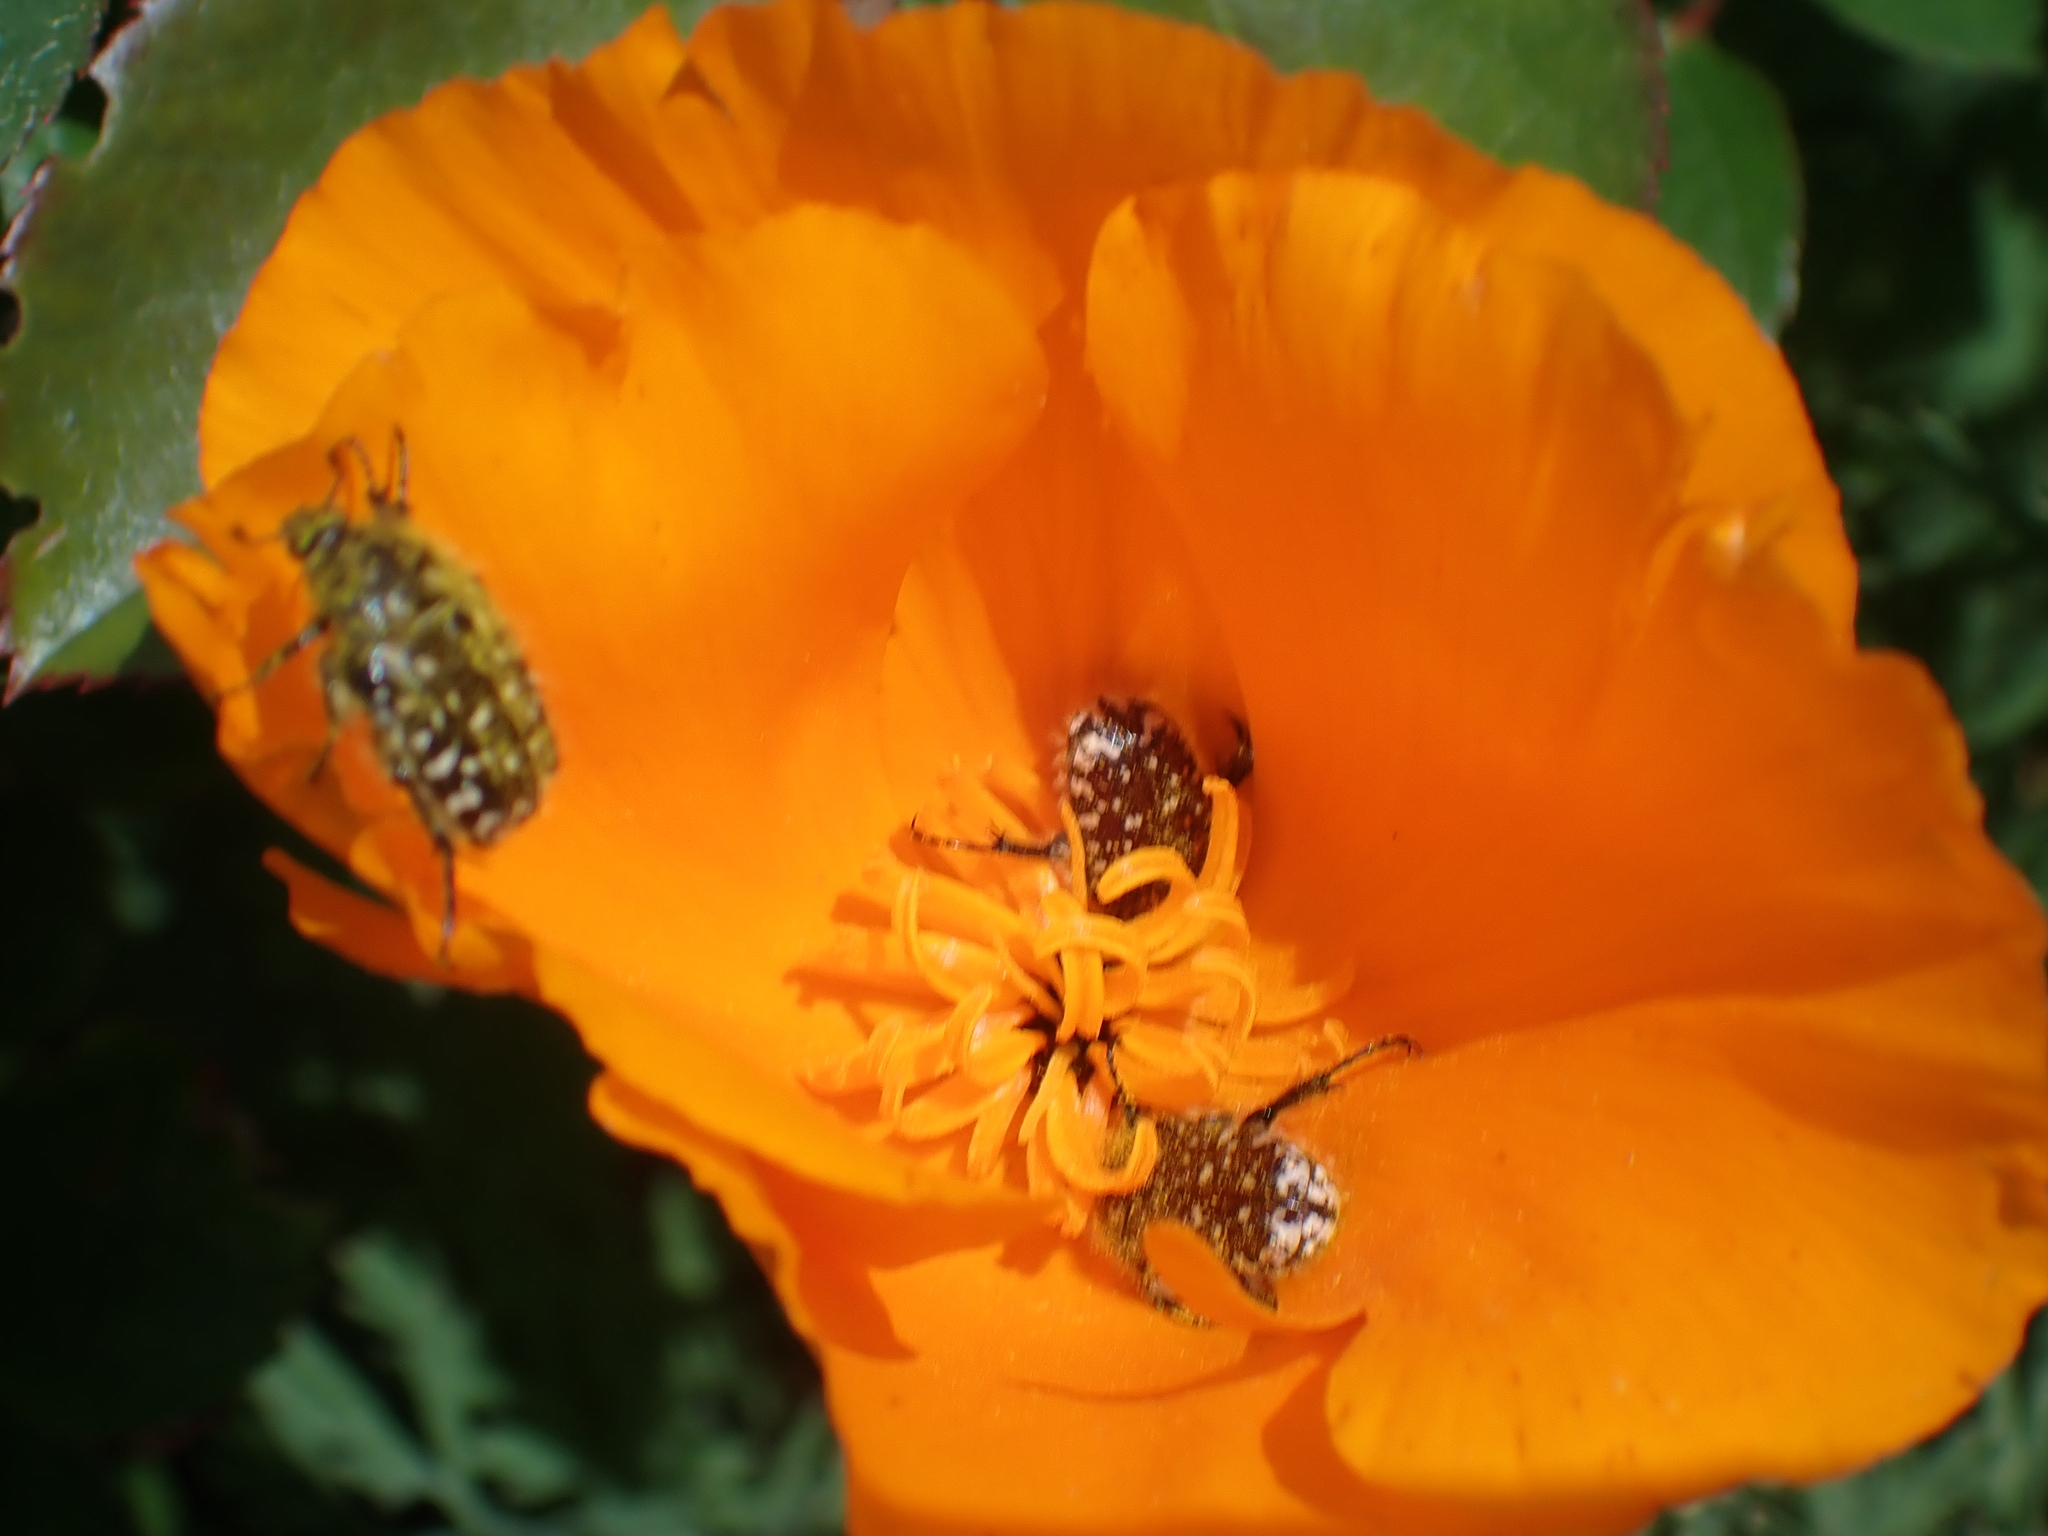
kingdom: Animalia
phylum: Arthropoda
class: Insecta
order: Coleoptera
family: Scarabaeidae
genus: Oxythyrea
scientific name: Oxythyrea funesta
